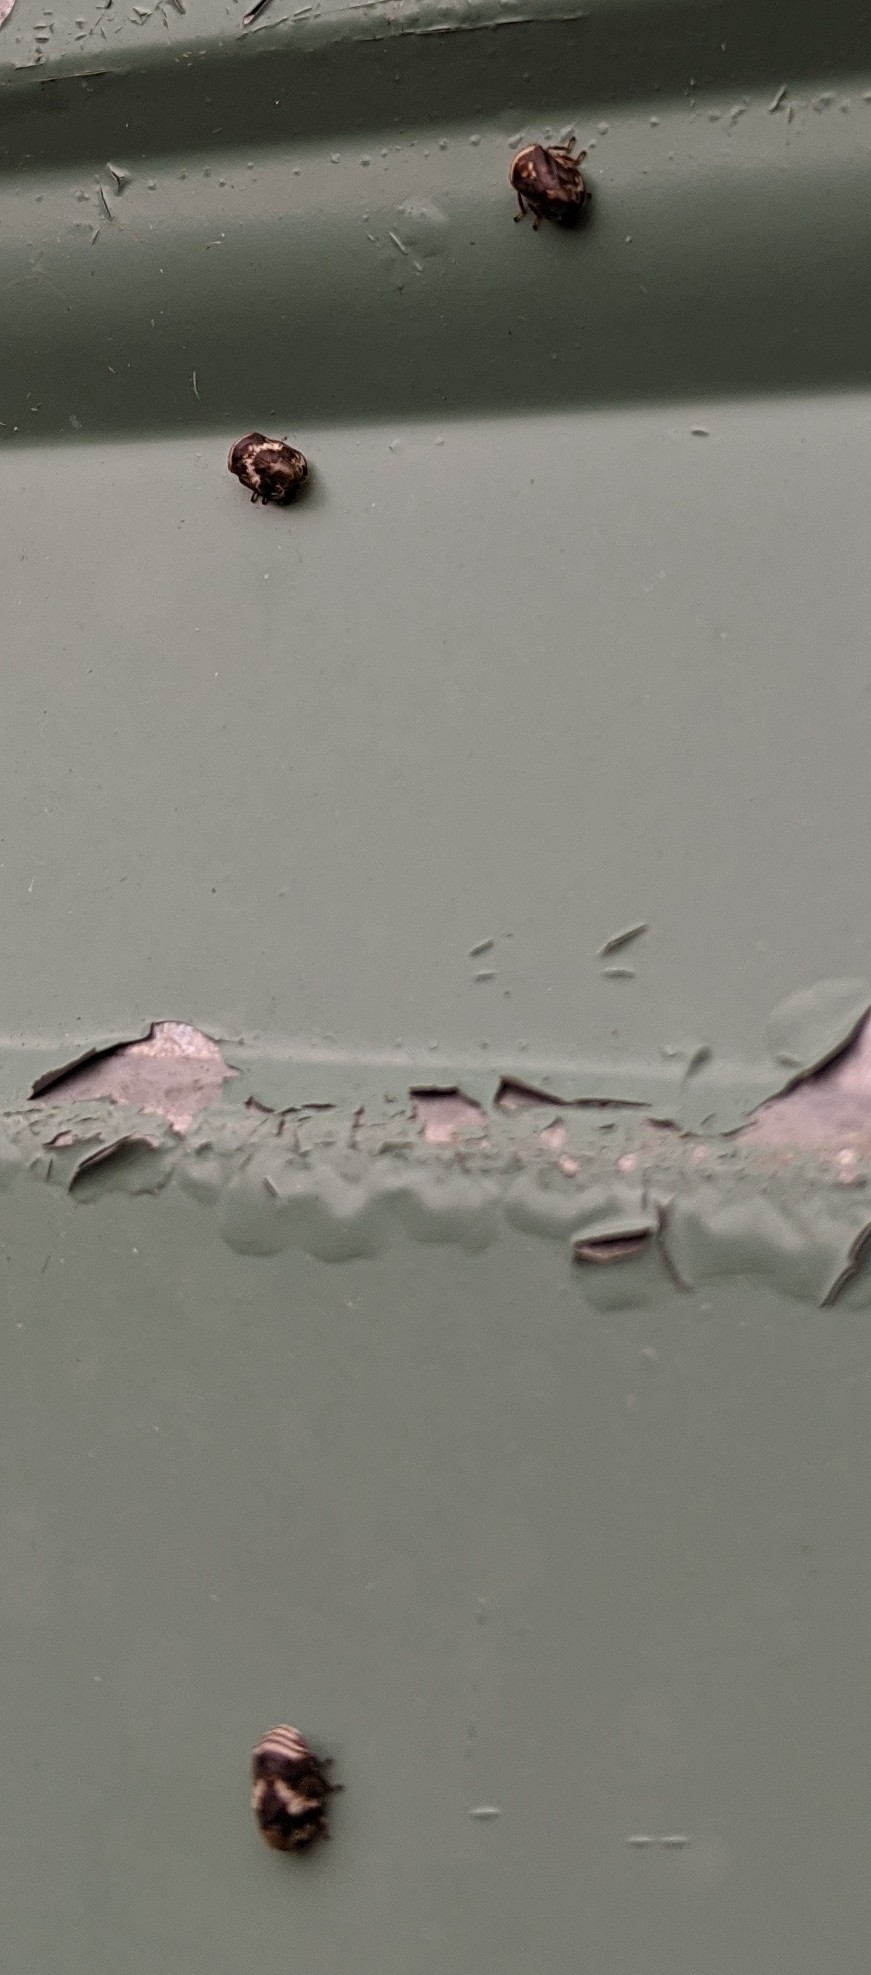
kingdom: Animalia
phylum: Arthropoda
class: Insecta
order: Hemiptera
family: Clastopteridae
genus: Clastoptera
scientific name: Clastoptera obtusa
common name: Alder spittlebug
